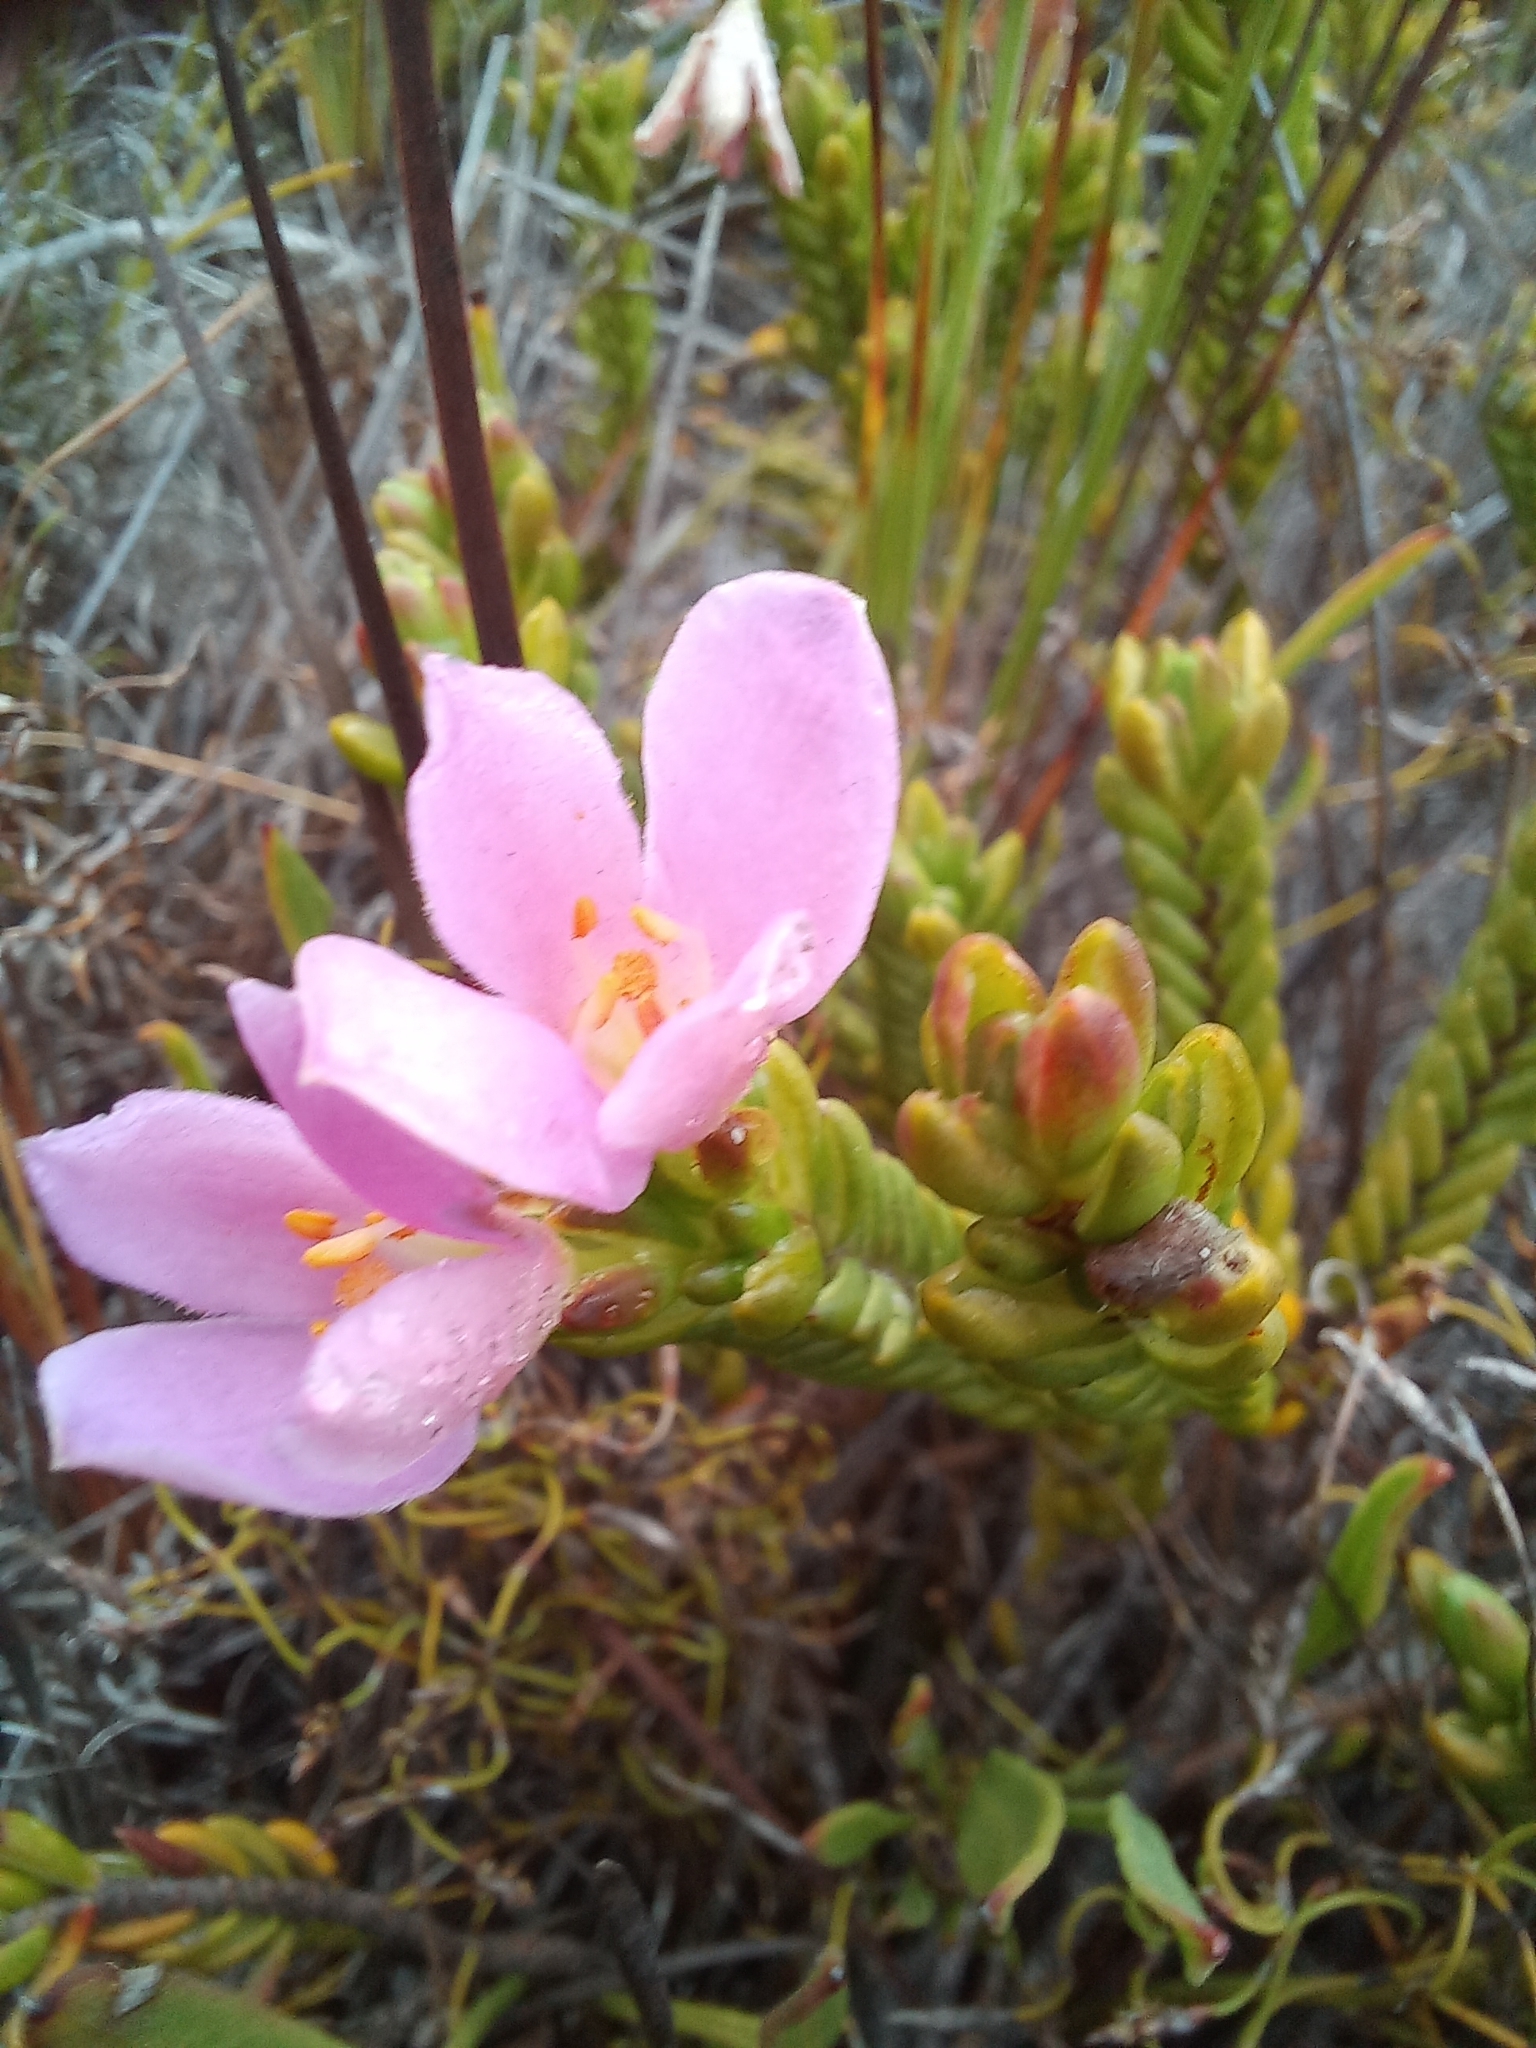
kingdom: Plantae
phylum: Tracheophyta
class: Magnoliopsida
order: Malvales
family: Thymelaeaceae
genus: Lachnaea
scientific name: Lachnaea grandiflora
